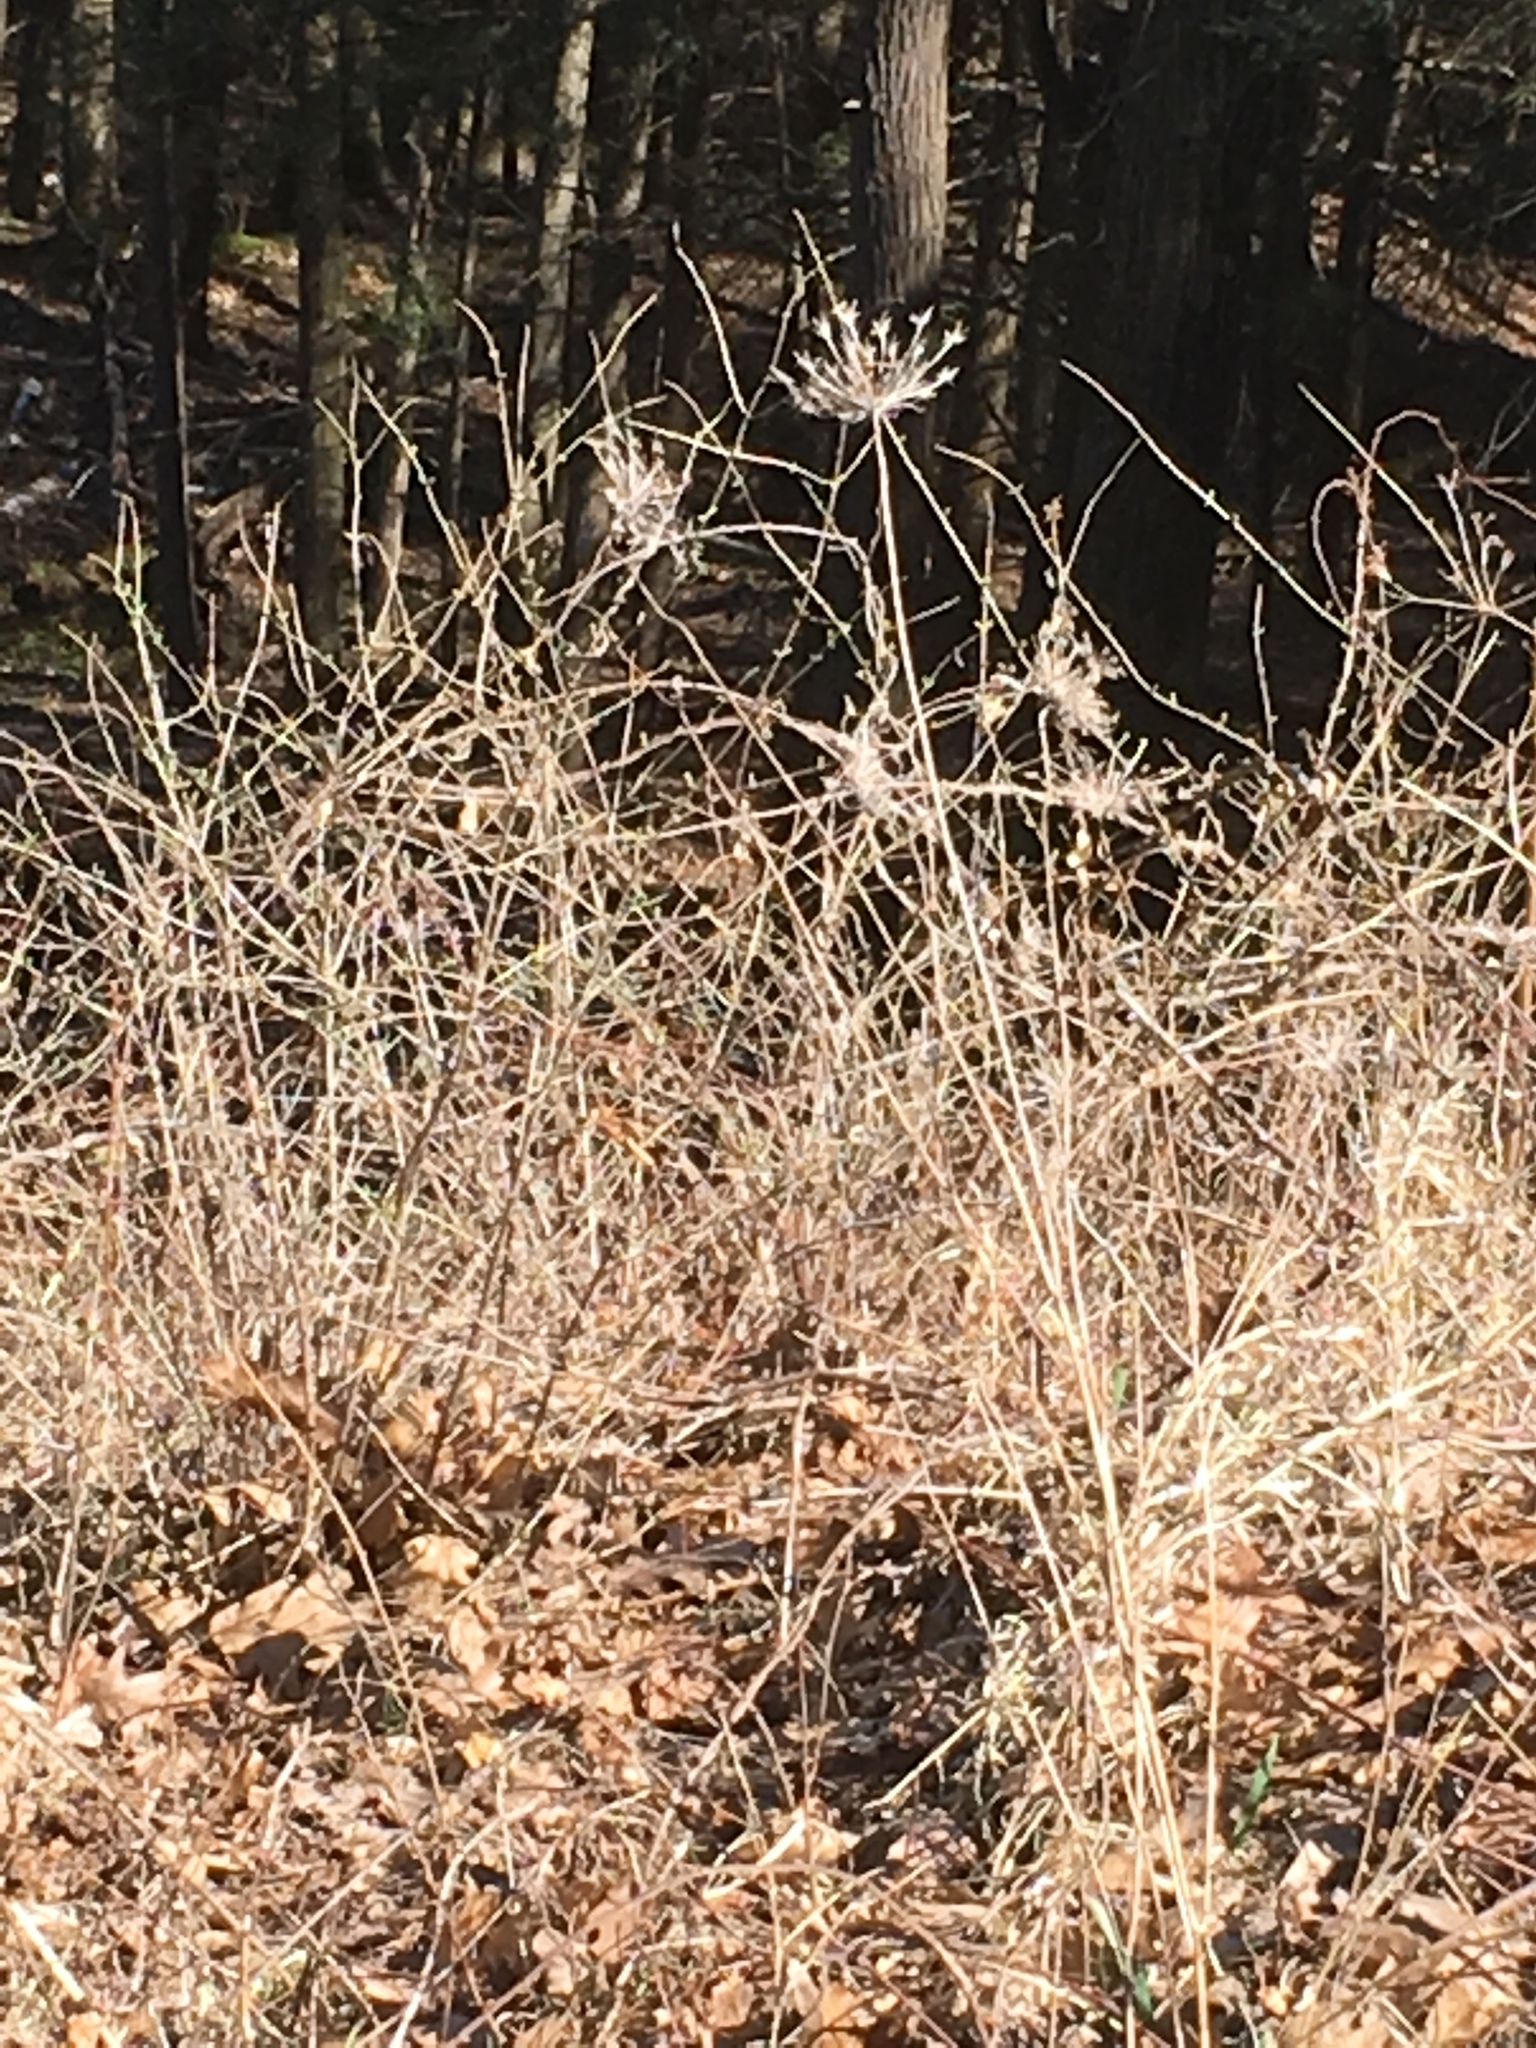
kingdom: Plantae
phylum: Tracheophyta
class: Magnoliopsida
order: Apiales
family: Apiaceae
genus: Daucus
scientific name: Daucus carota
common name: Wild carrot
